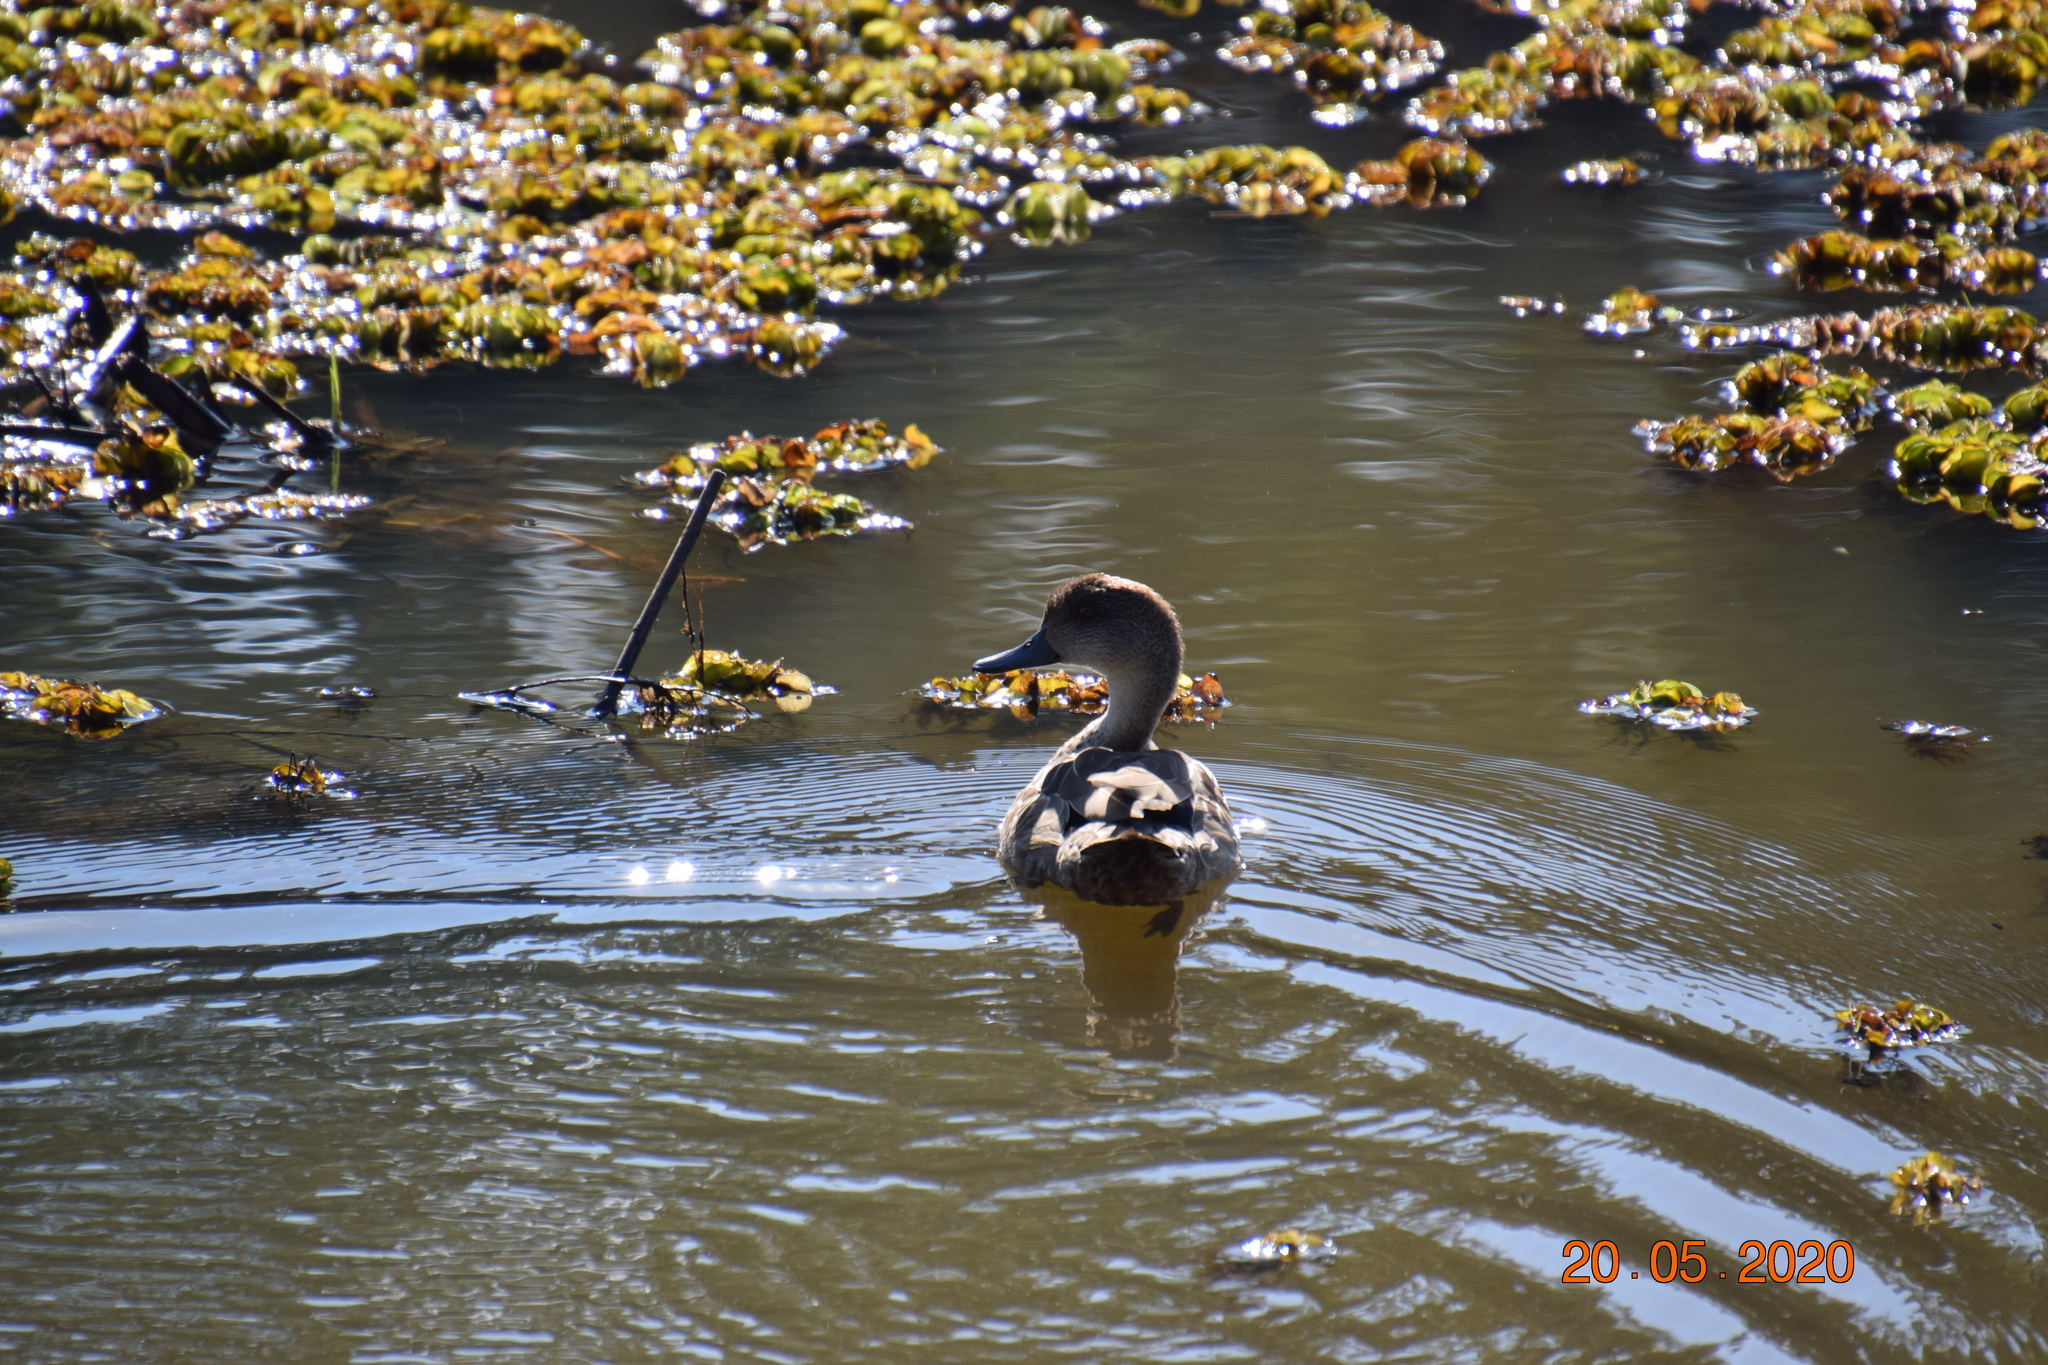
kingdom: Animalia
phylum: Chordata
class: Aves
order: Anseriformes
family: Anatidae
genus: Anas
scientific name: Anas castanea
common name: Chestnut teal
